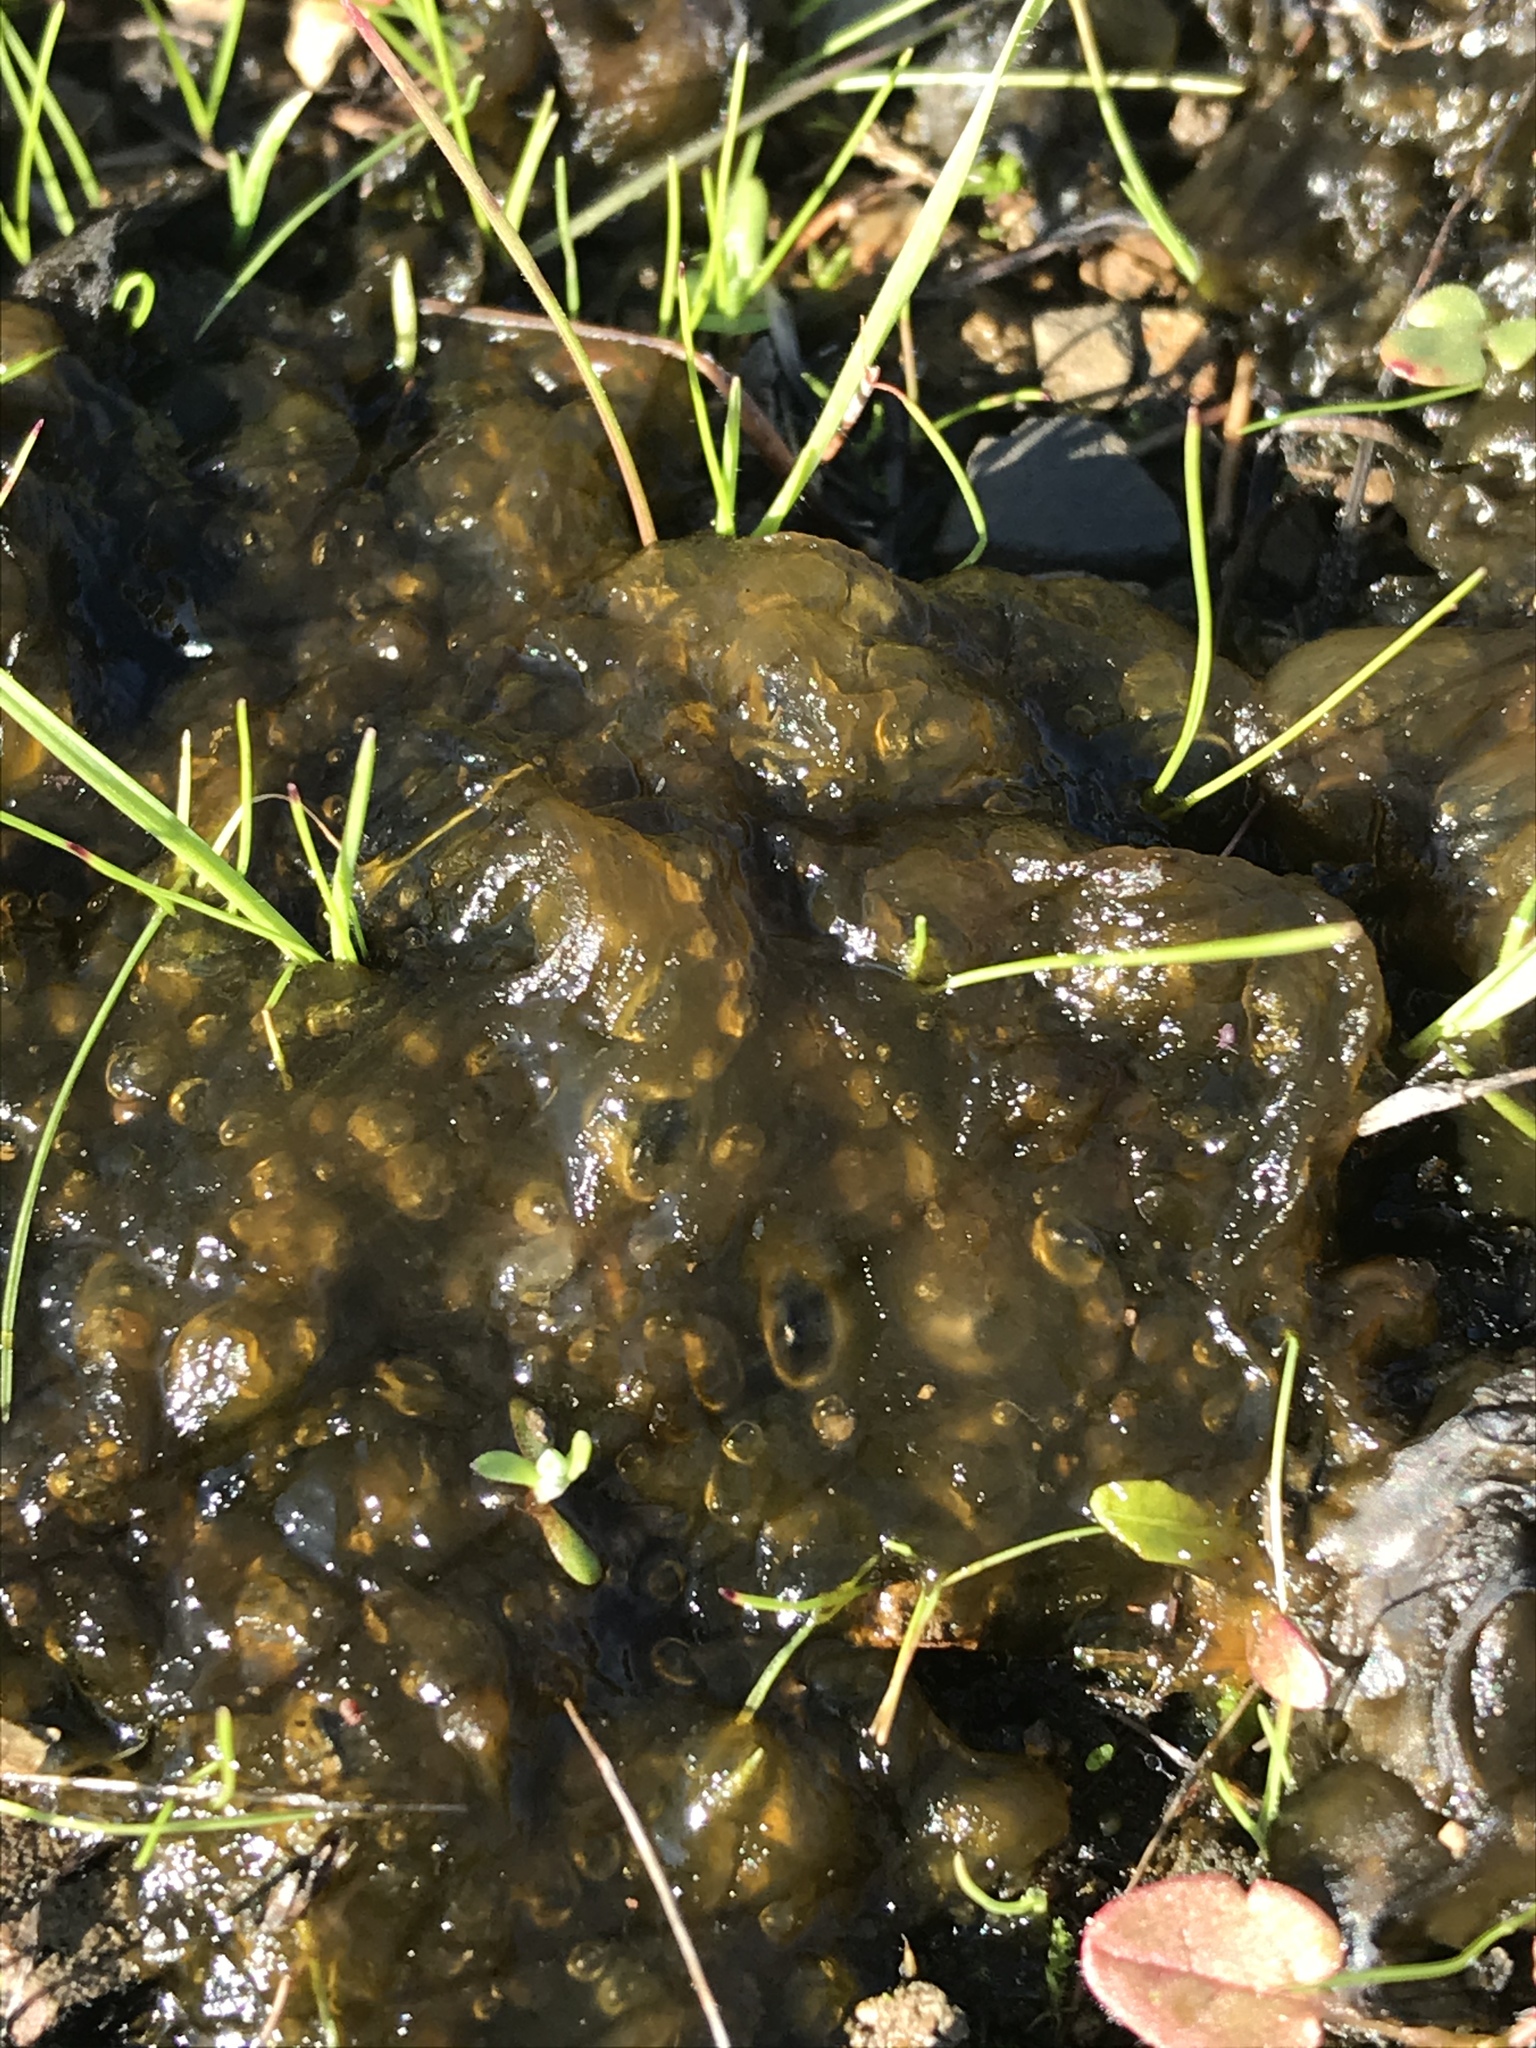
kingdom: Bacteria
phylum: Cyanobacteria
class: Cyanobacteriia
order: Cyanobacteriales
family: Nostocaceae
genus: Nostoc
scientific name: Nostoc commune
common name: Star jelly
